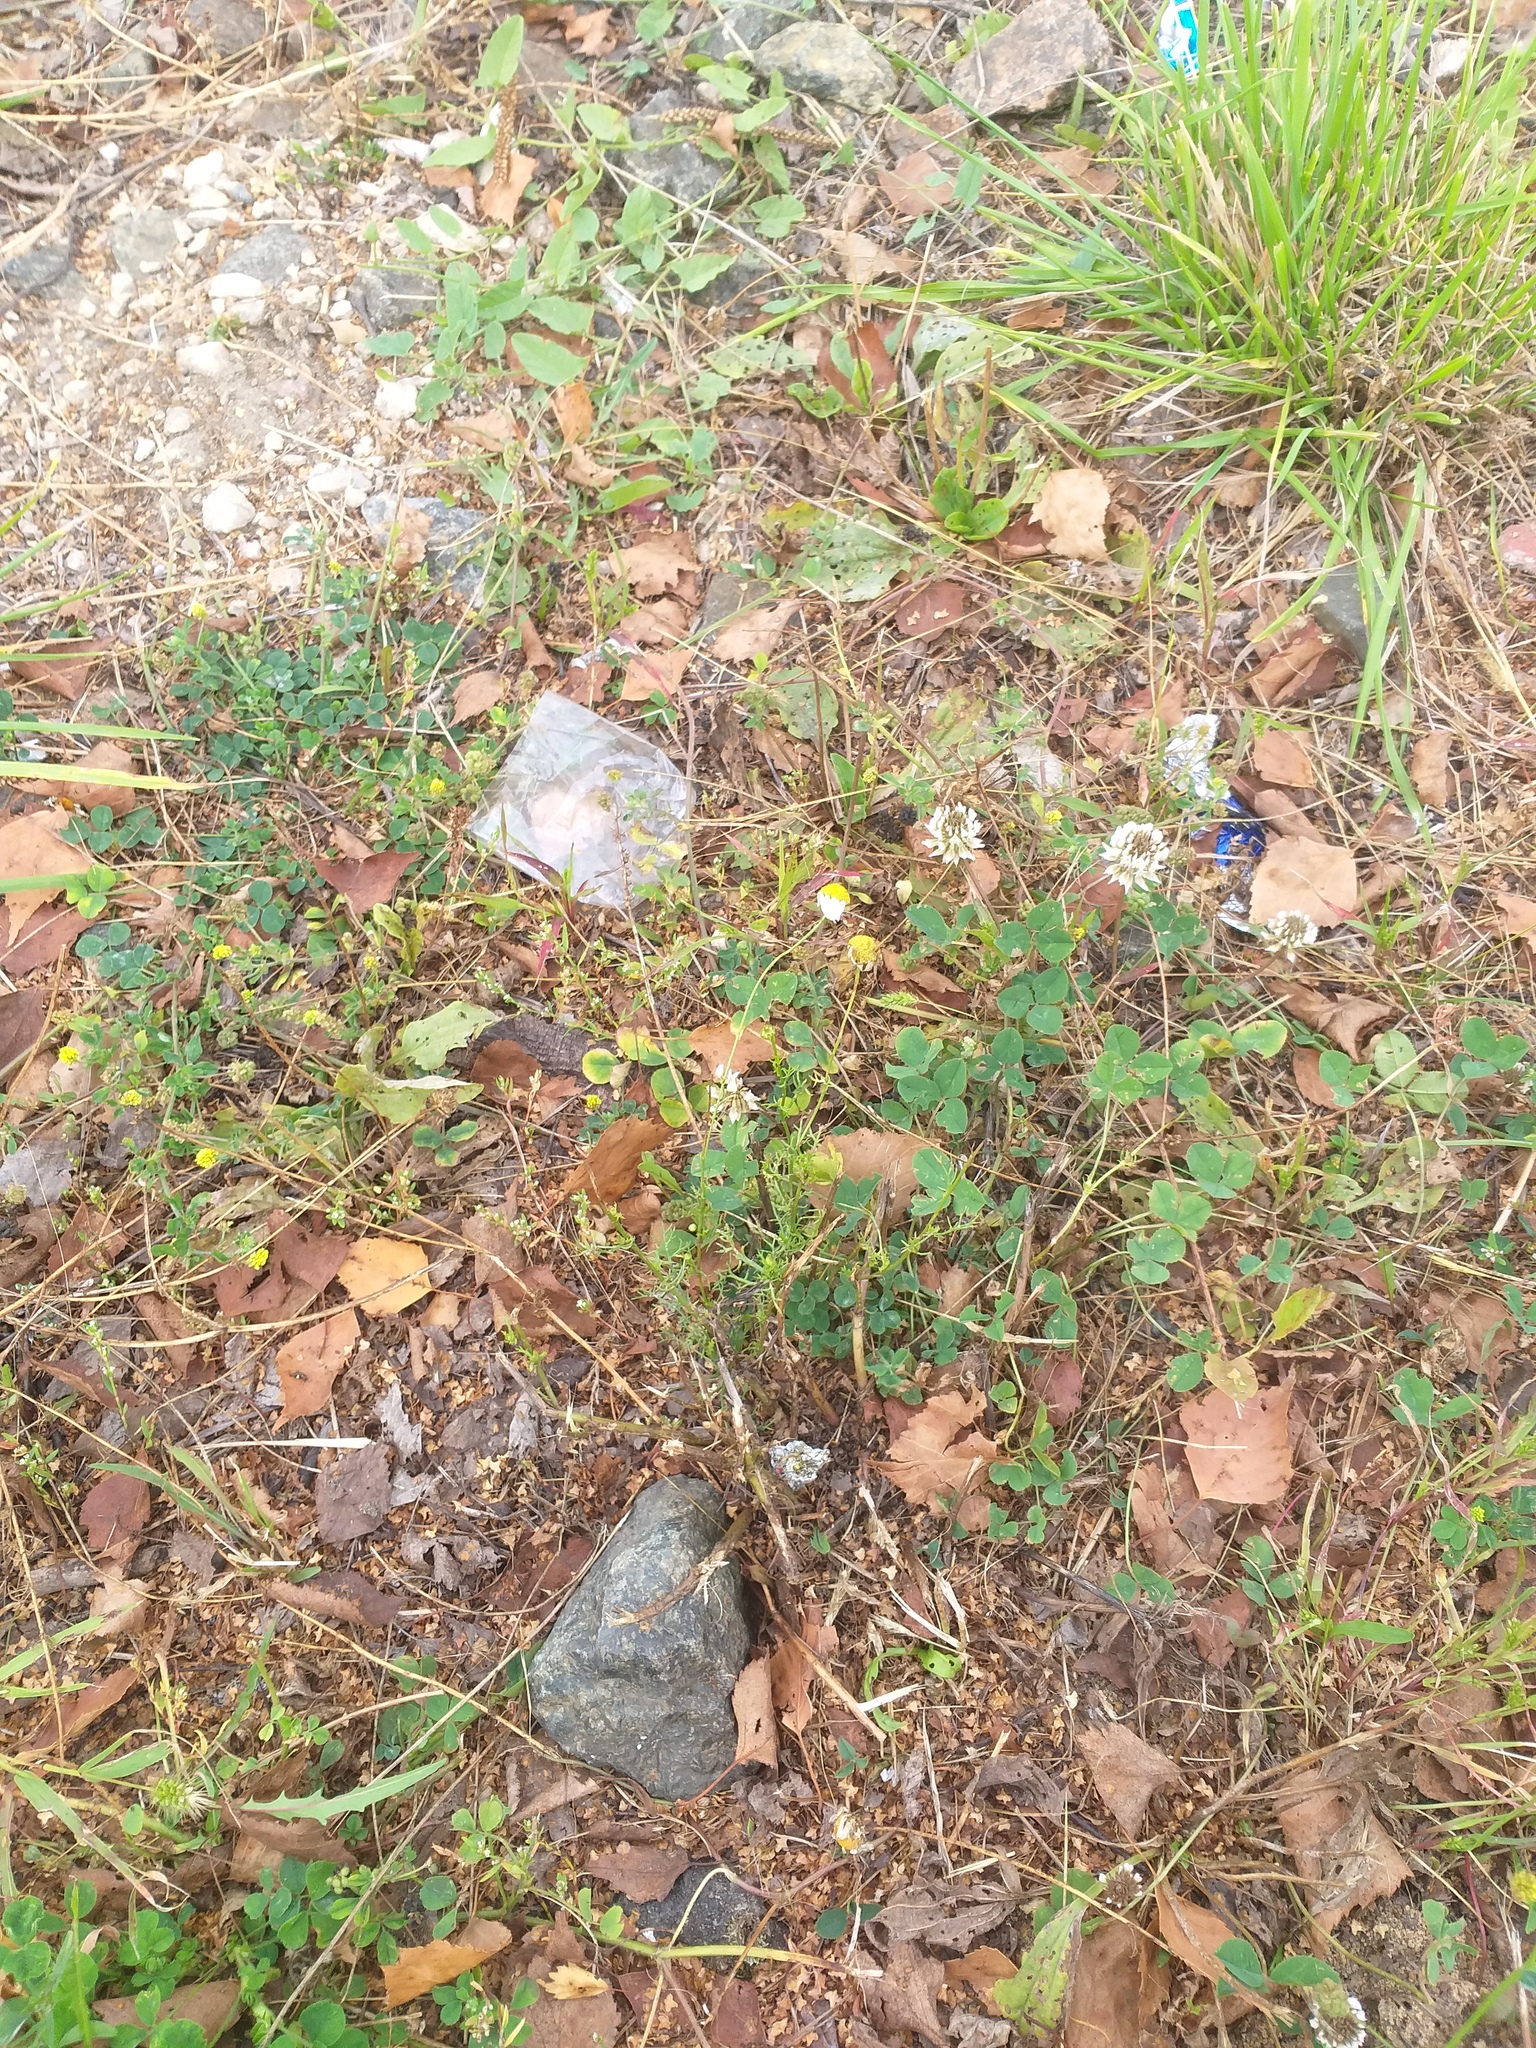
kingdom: Plantae
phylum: Tracheophyta
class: Magnoliopsida
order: Asterales
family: Asteraceae
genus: Tripleurospermum
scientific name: Tripleurospermum inodorum
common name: Scentless mayweed
